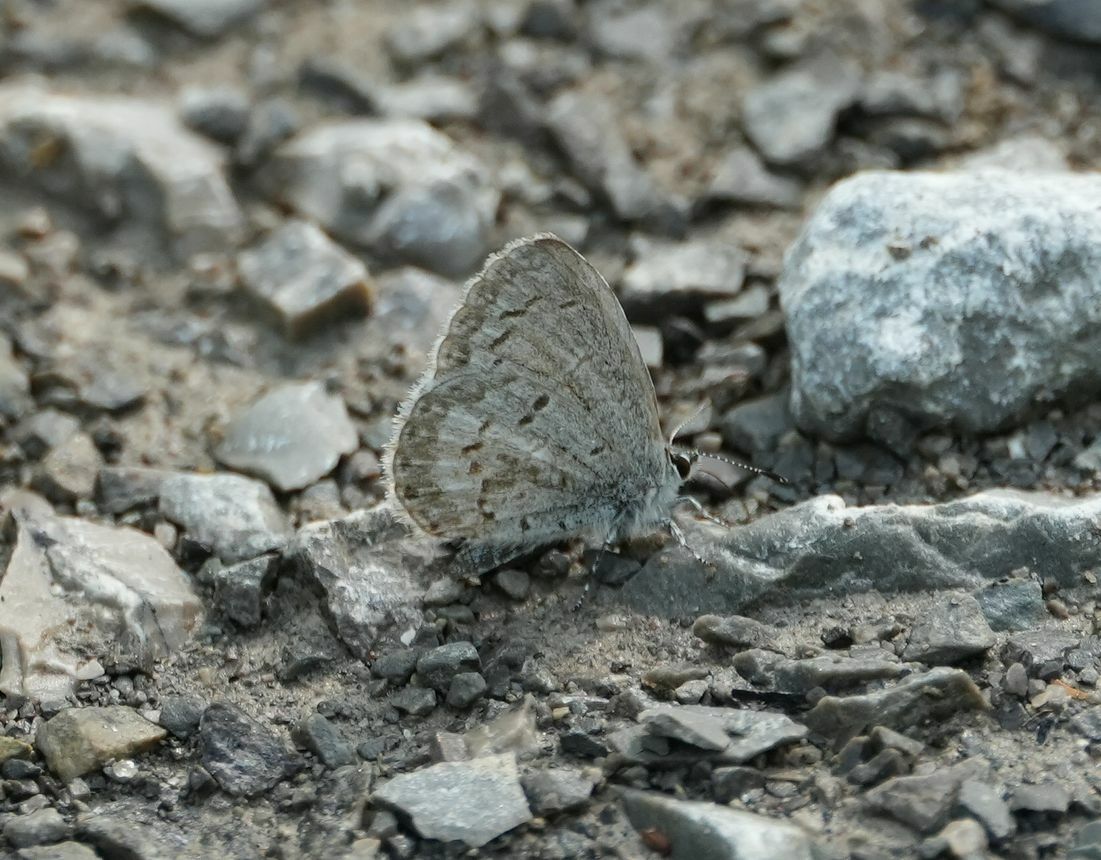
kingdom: Animalia
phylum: Arthropoda
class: Insecta
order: Lepidoptera
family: Lycaenidae
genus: Celastrina
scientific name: Celastrina lucia
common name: Lucia azure
